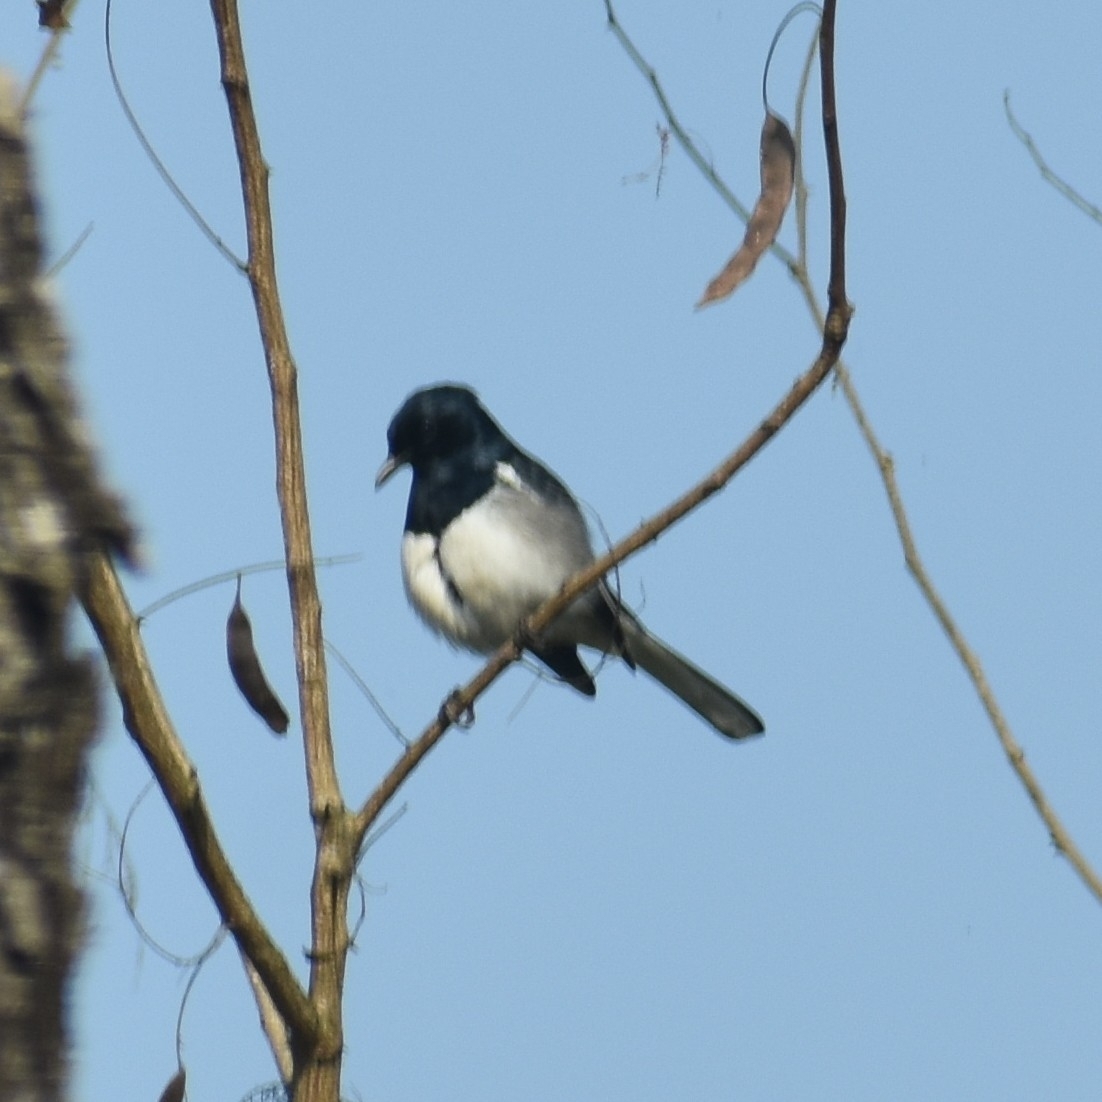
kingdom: Animalia
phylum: Chordata
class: Aves
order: Passeriformes
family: Muscicapidae
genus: Copsychus
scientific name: Copsychus saularis
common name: Oriental magpie-robin
